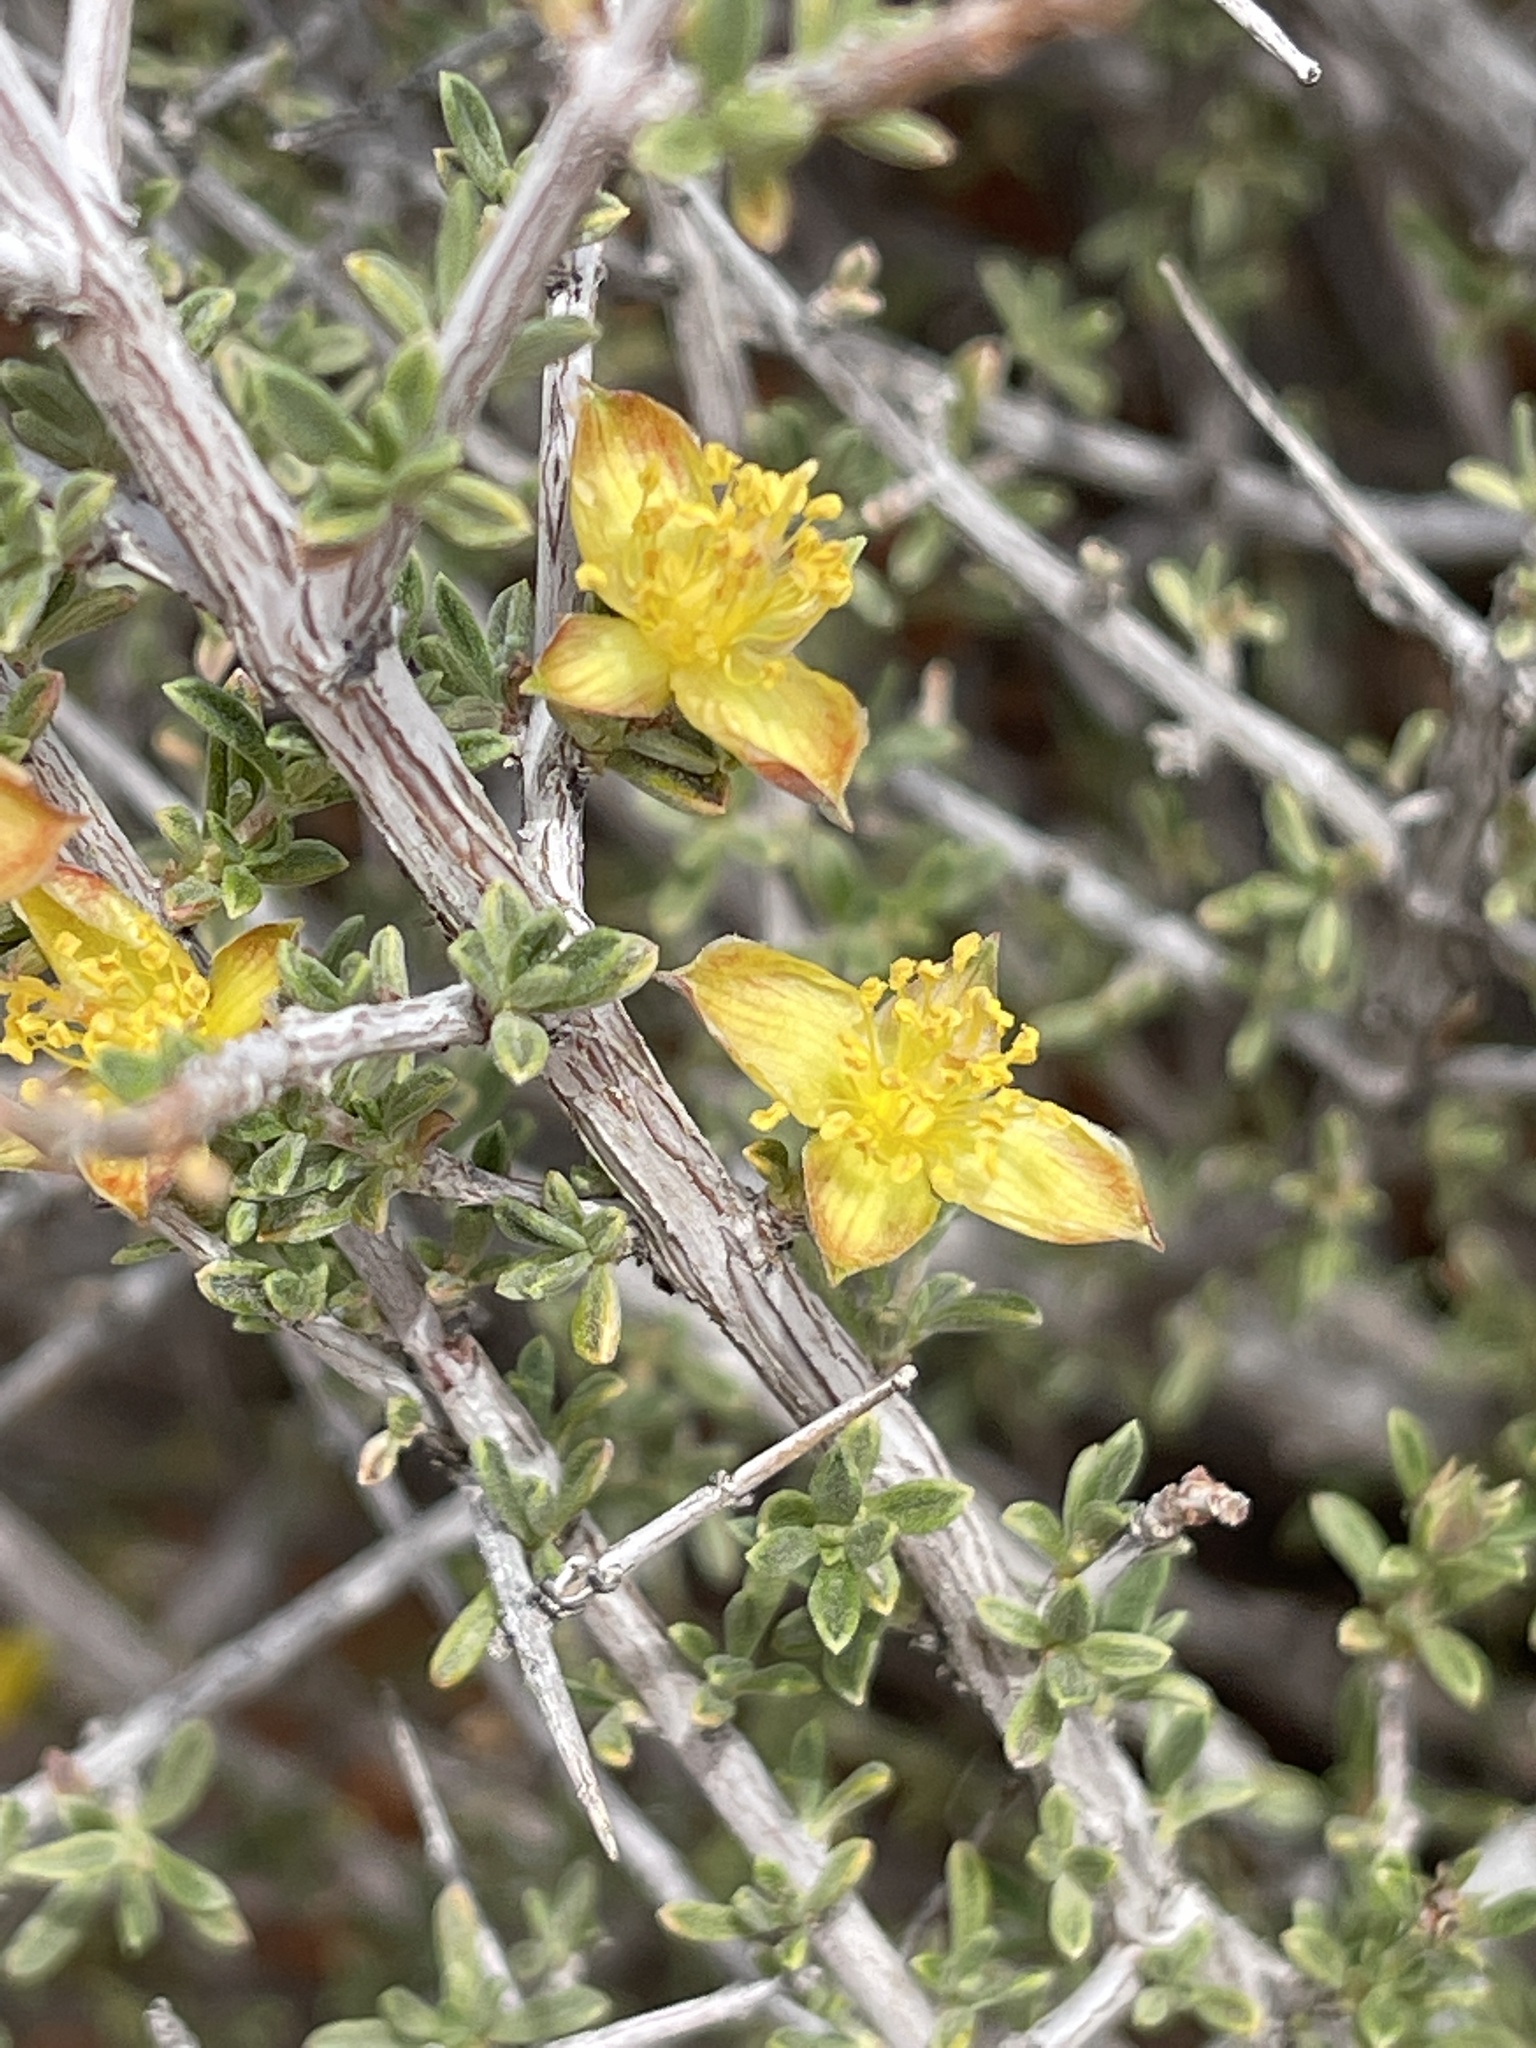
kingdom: Plantae
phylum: Tracheophyta
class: Magnoliopsida
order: Rosales
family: Rosaceae
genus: Coleogyne
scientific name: Coleogyne ramosissima
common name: Blackbrush
